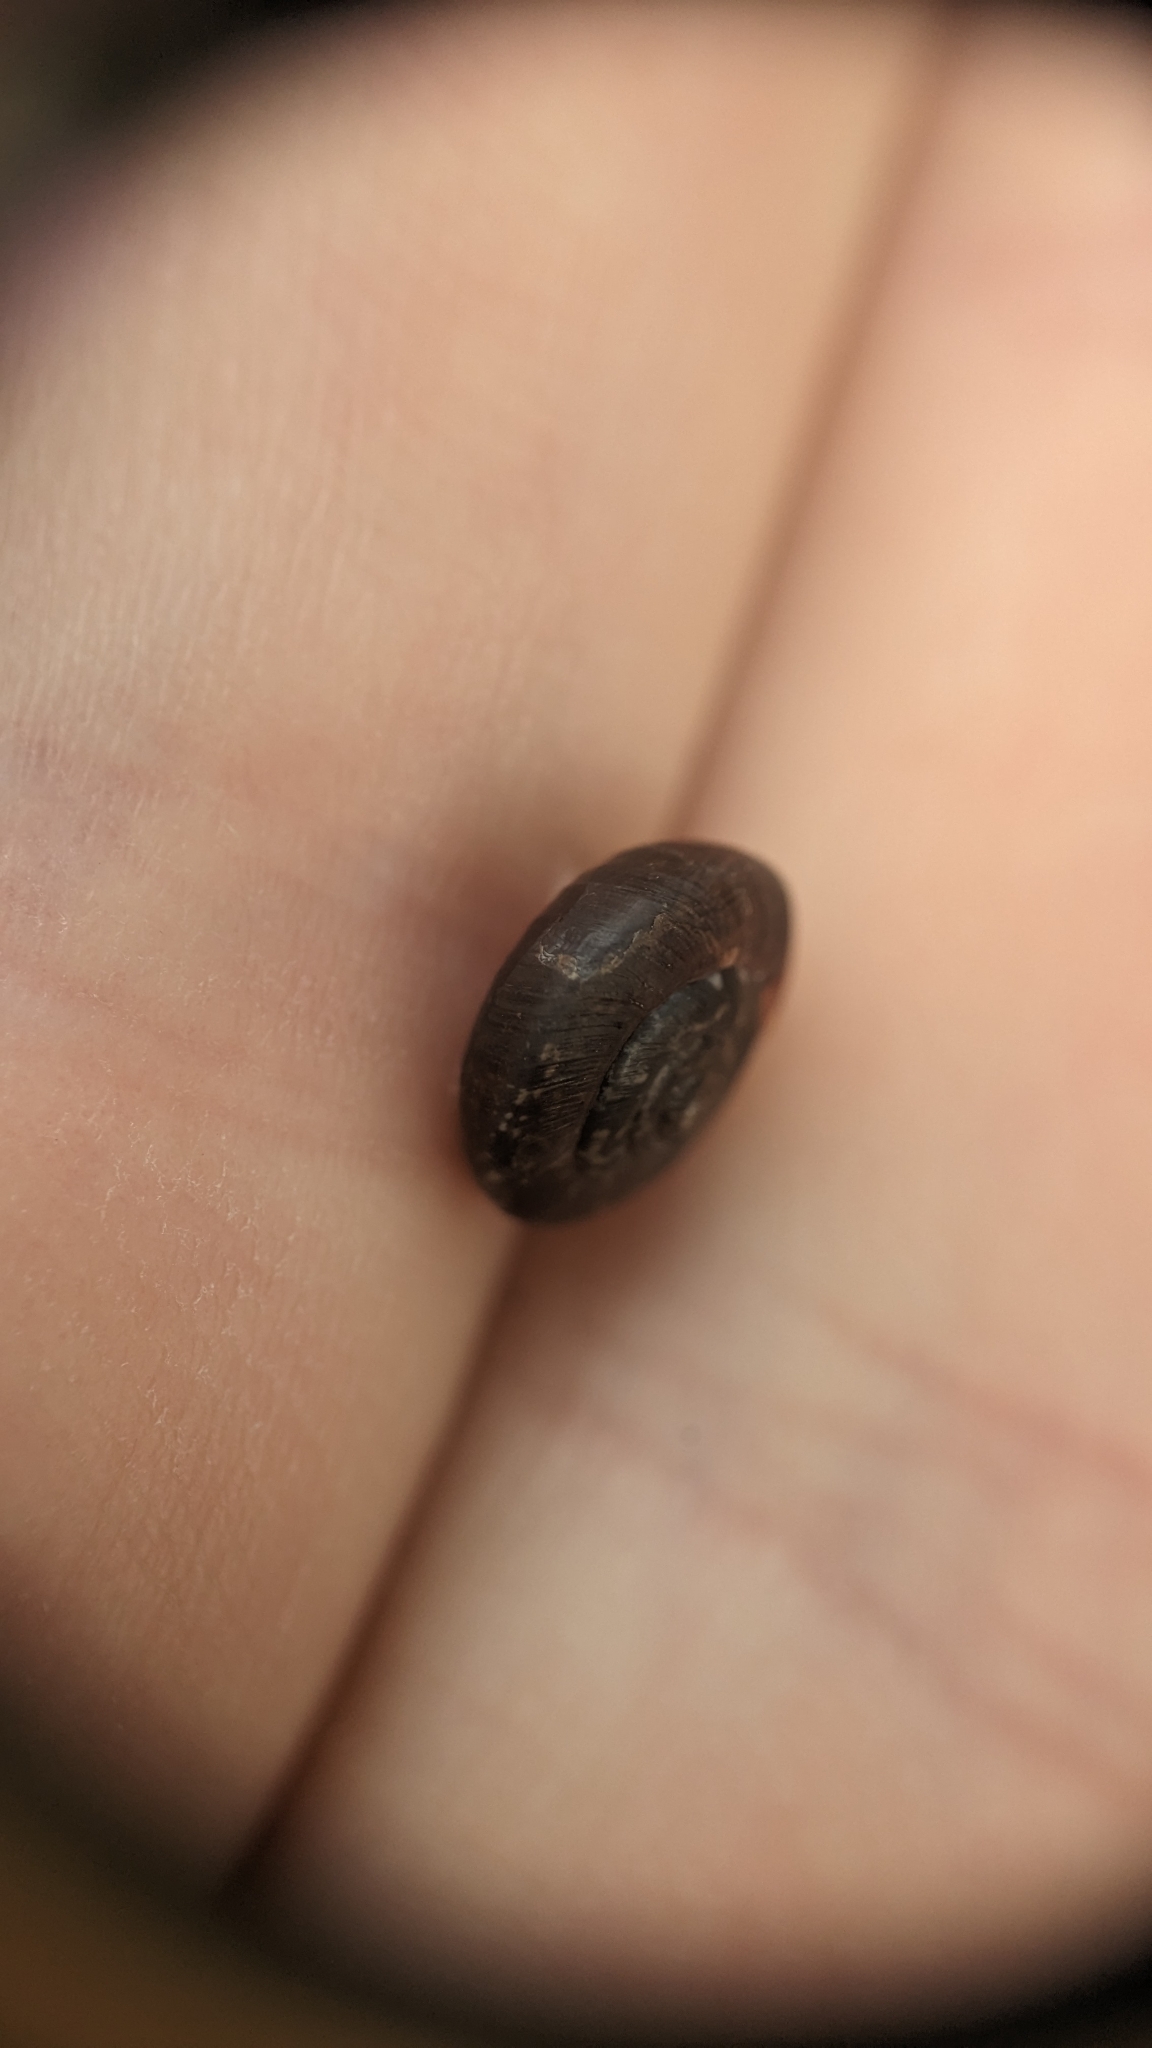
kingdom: Animalia
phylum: Mollusca
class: Gastropoda
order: Stylommatophora
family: Hygromiidae
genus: Trochulus
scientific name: Trochulus striolatus
